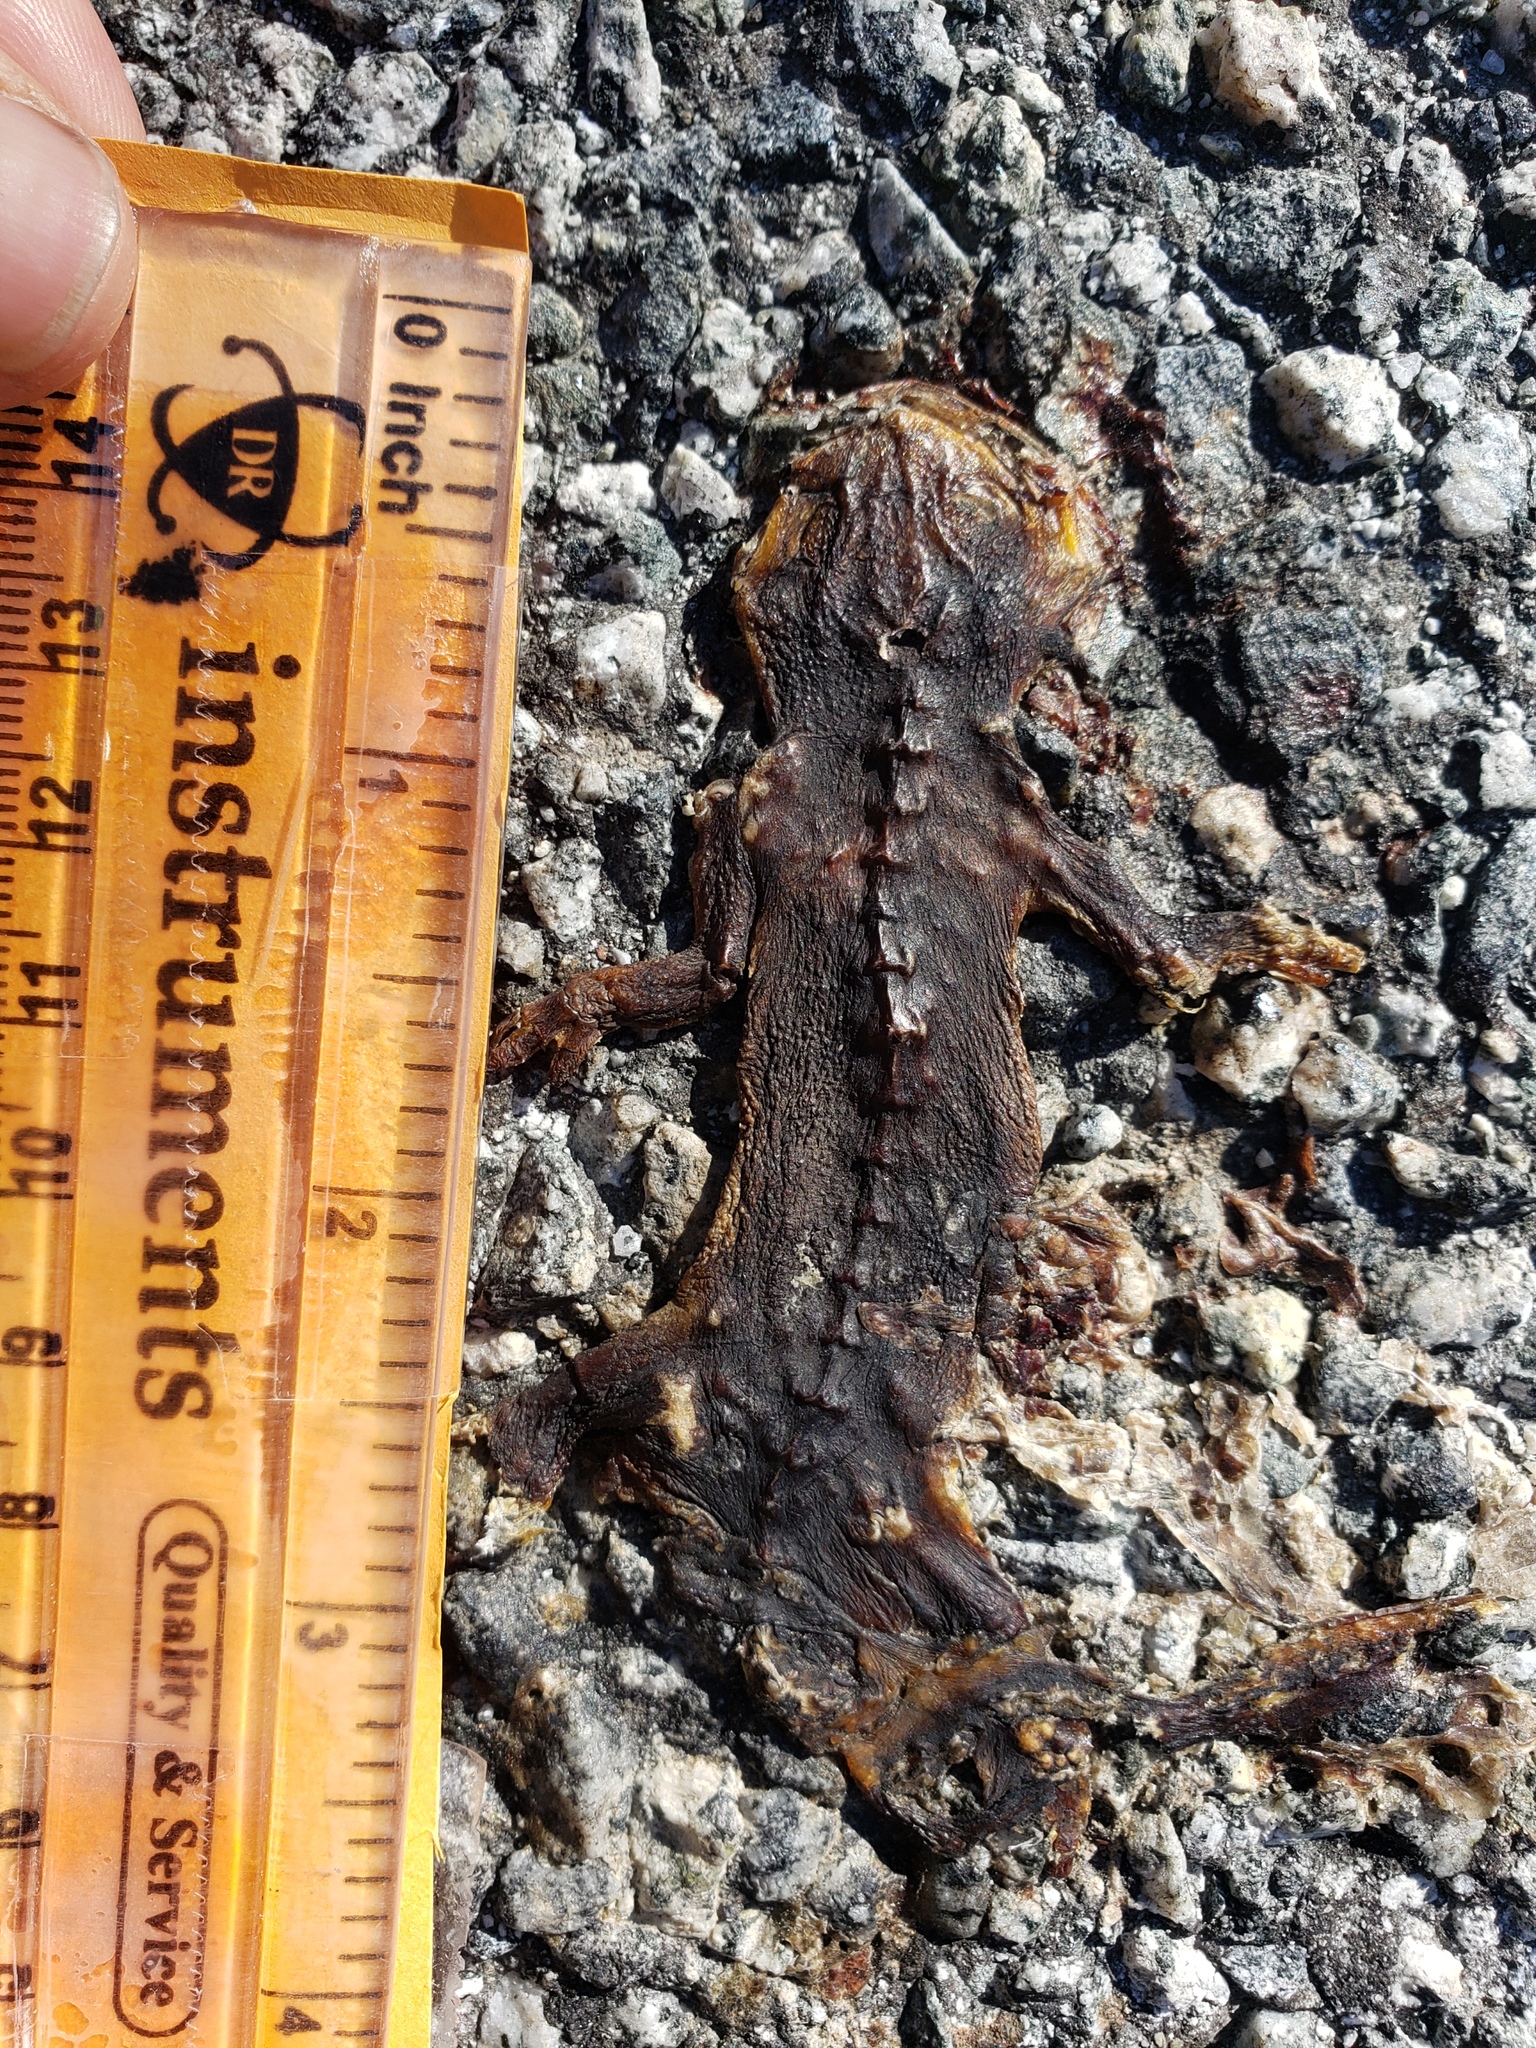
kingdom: Animalia
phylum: Chordata
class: Amphibia
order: Caudata
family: Salamandridae
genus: Taricha
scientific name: Taricha
